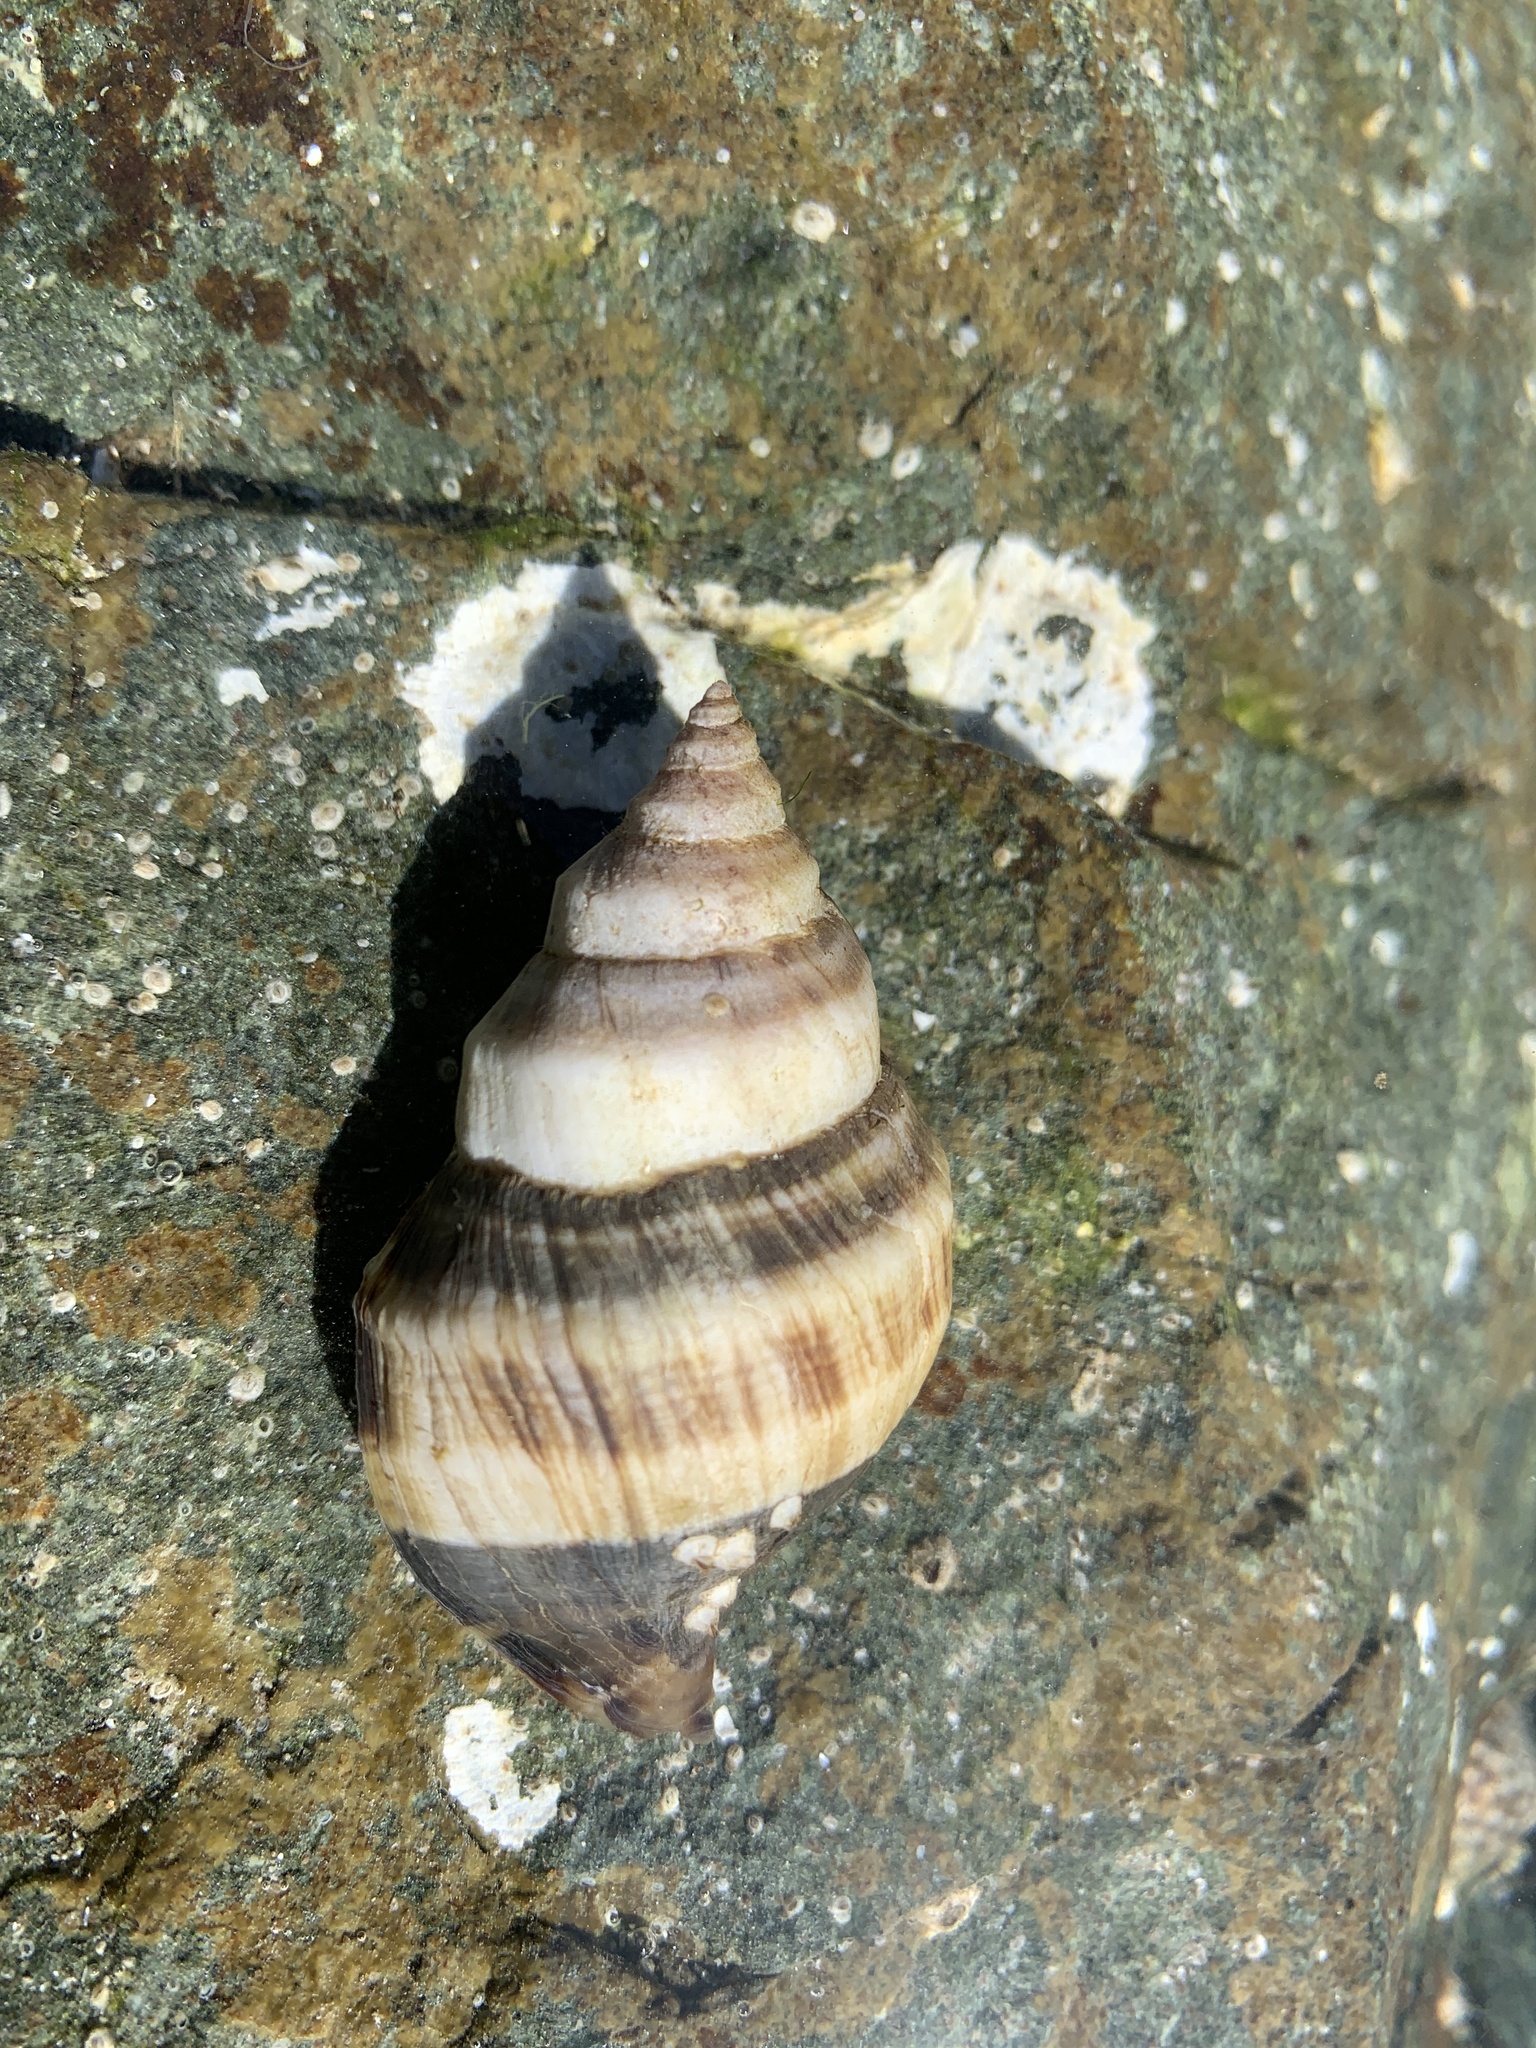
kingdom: Animalia
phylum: Mollusca
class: Gastropoda
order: Neogastropoda
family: Muricidae
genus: Nucella
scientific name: Nucella lamellosa
